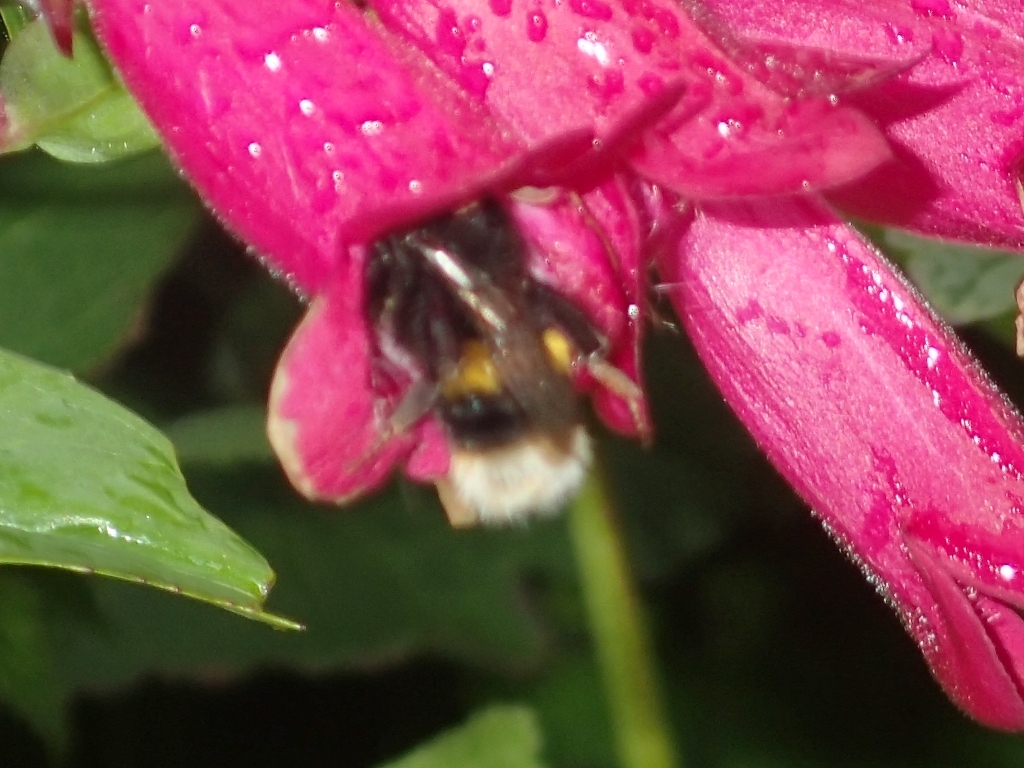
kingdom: Animalia
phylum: Arthropoda
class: Insecta
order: Hymenoptera
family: Apidae
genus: Bombus
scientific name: Bombus terrestris
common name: Buff-tailed bumblebee
